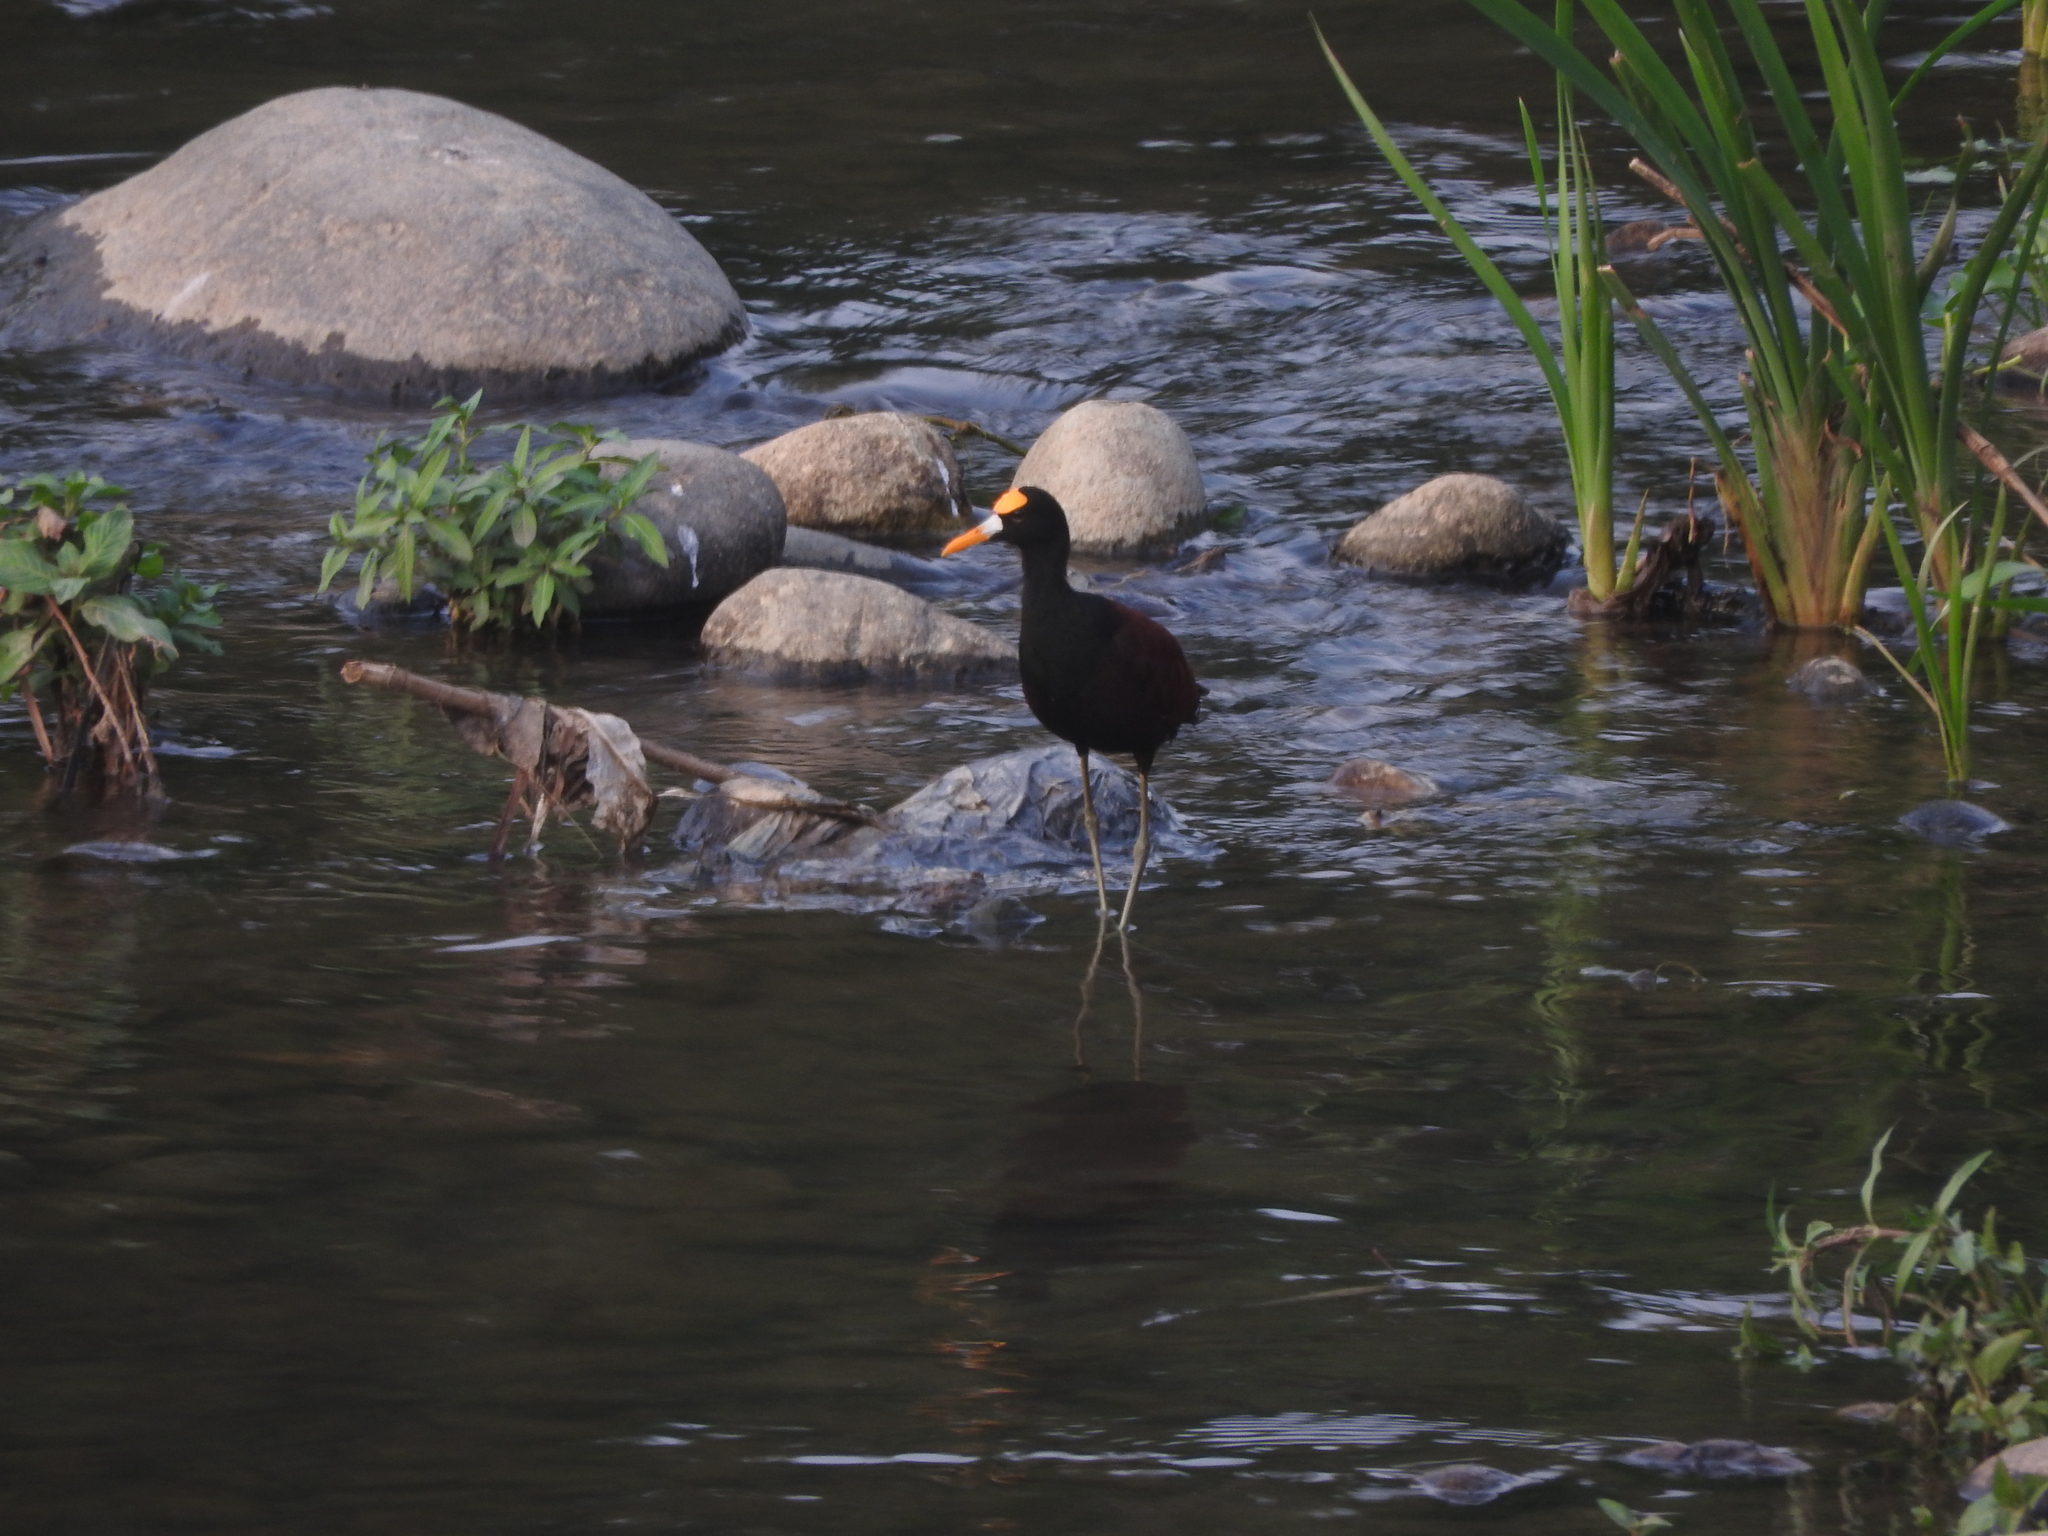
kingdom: Animalia
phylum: Chordata
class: Aves
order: Charadriiformes
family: Jacanidae
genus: Jacana
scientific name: Jacana spinosa
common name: Northern jacana
